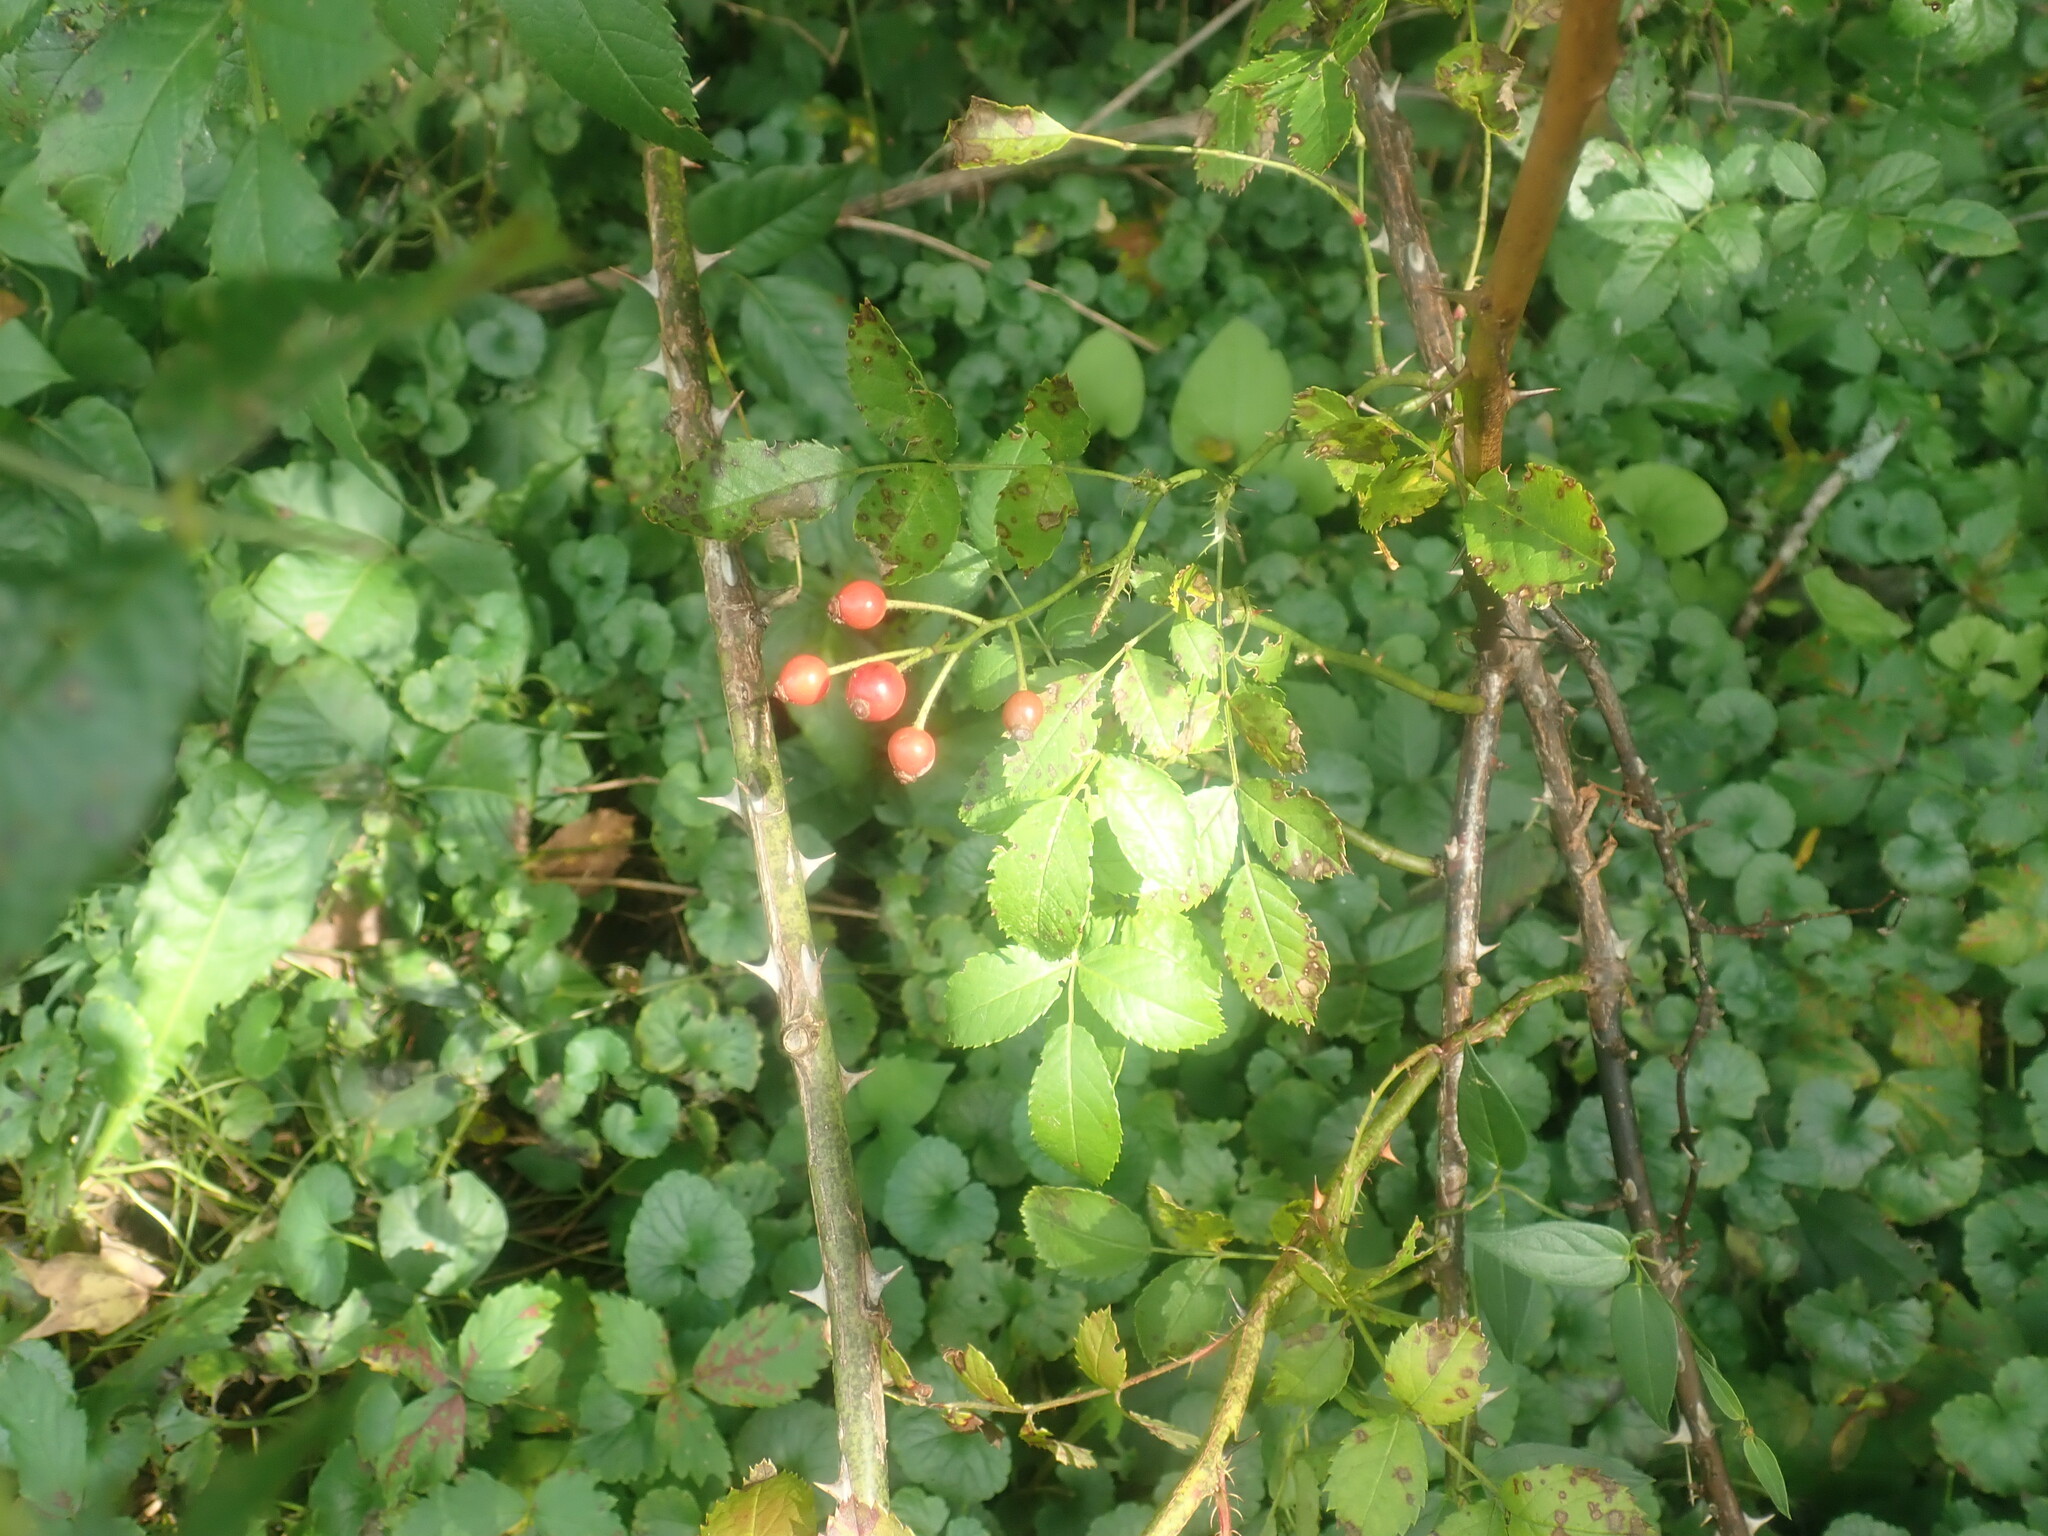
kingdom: Plantae
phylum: Tracheophyta
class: Magnoliopsida
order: Rosales
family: Rosaceae
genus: Rosa
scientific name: Rosa multiflora
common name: Multiflora rose
